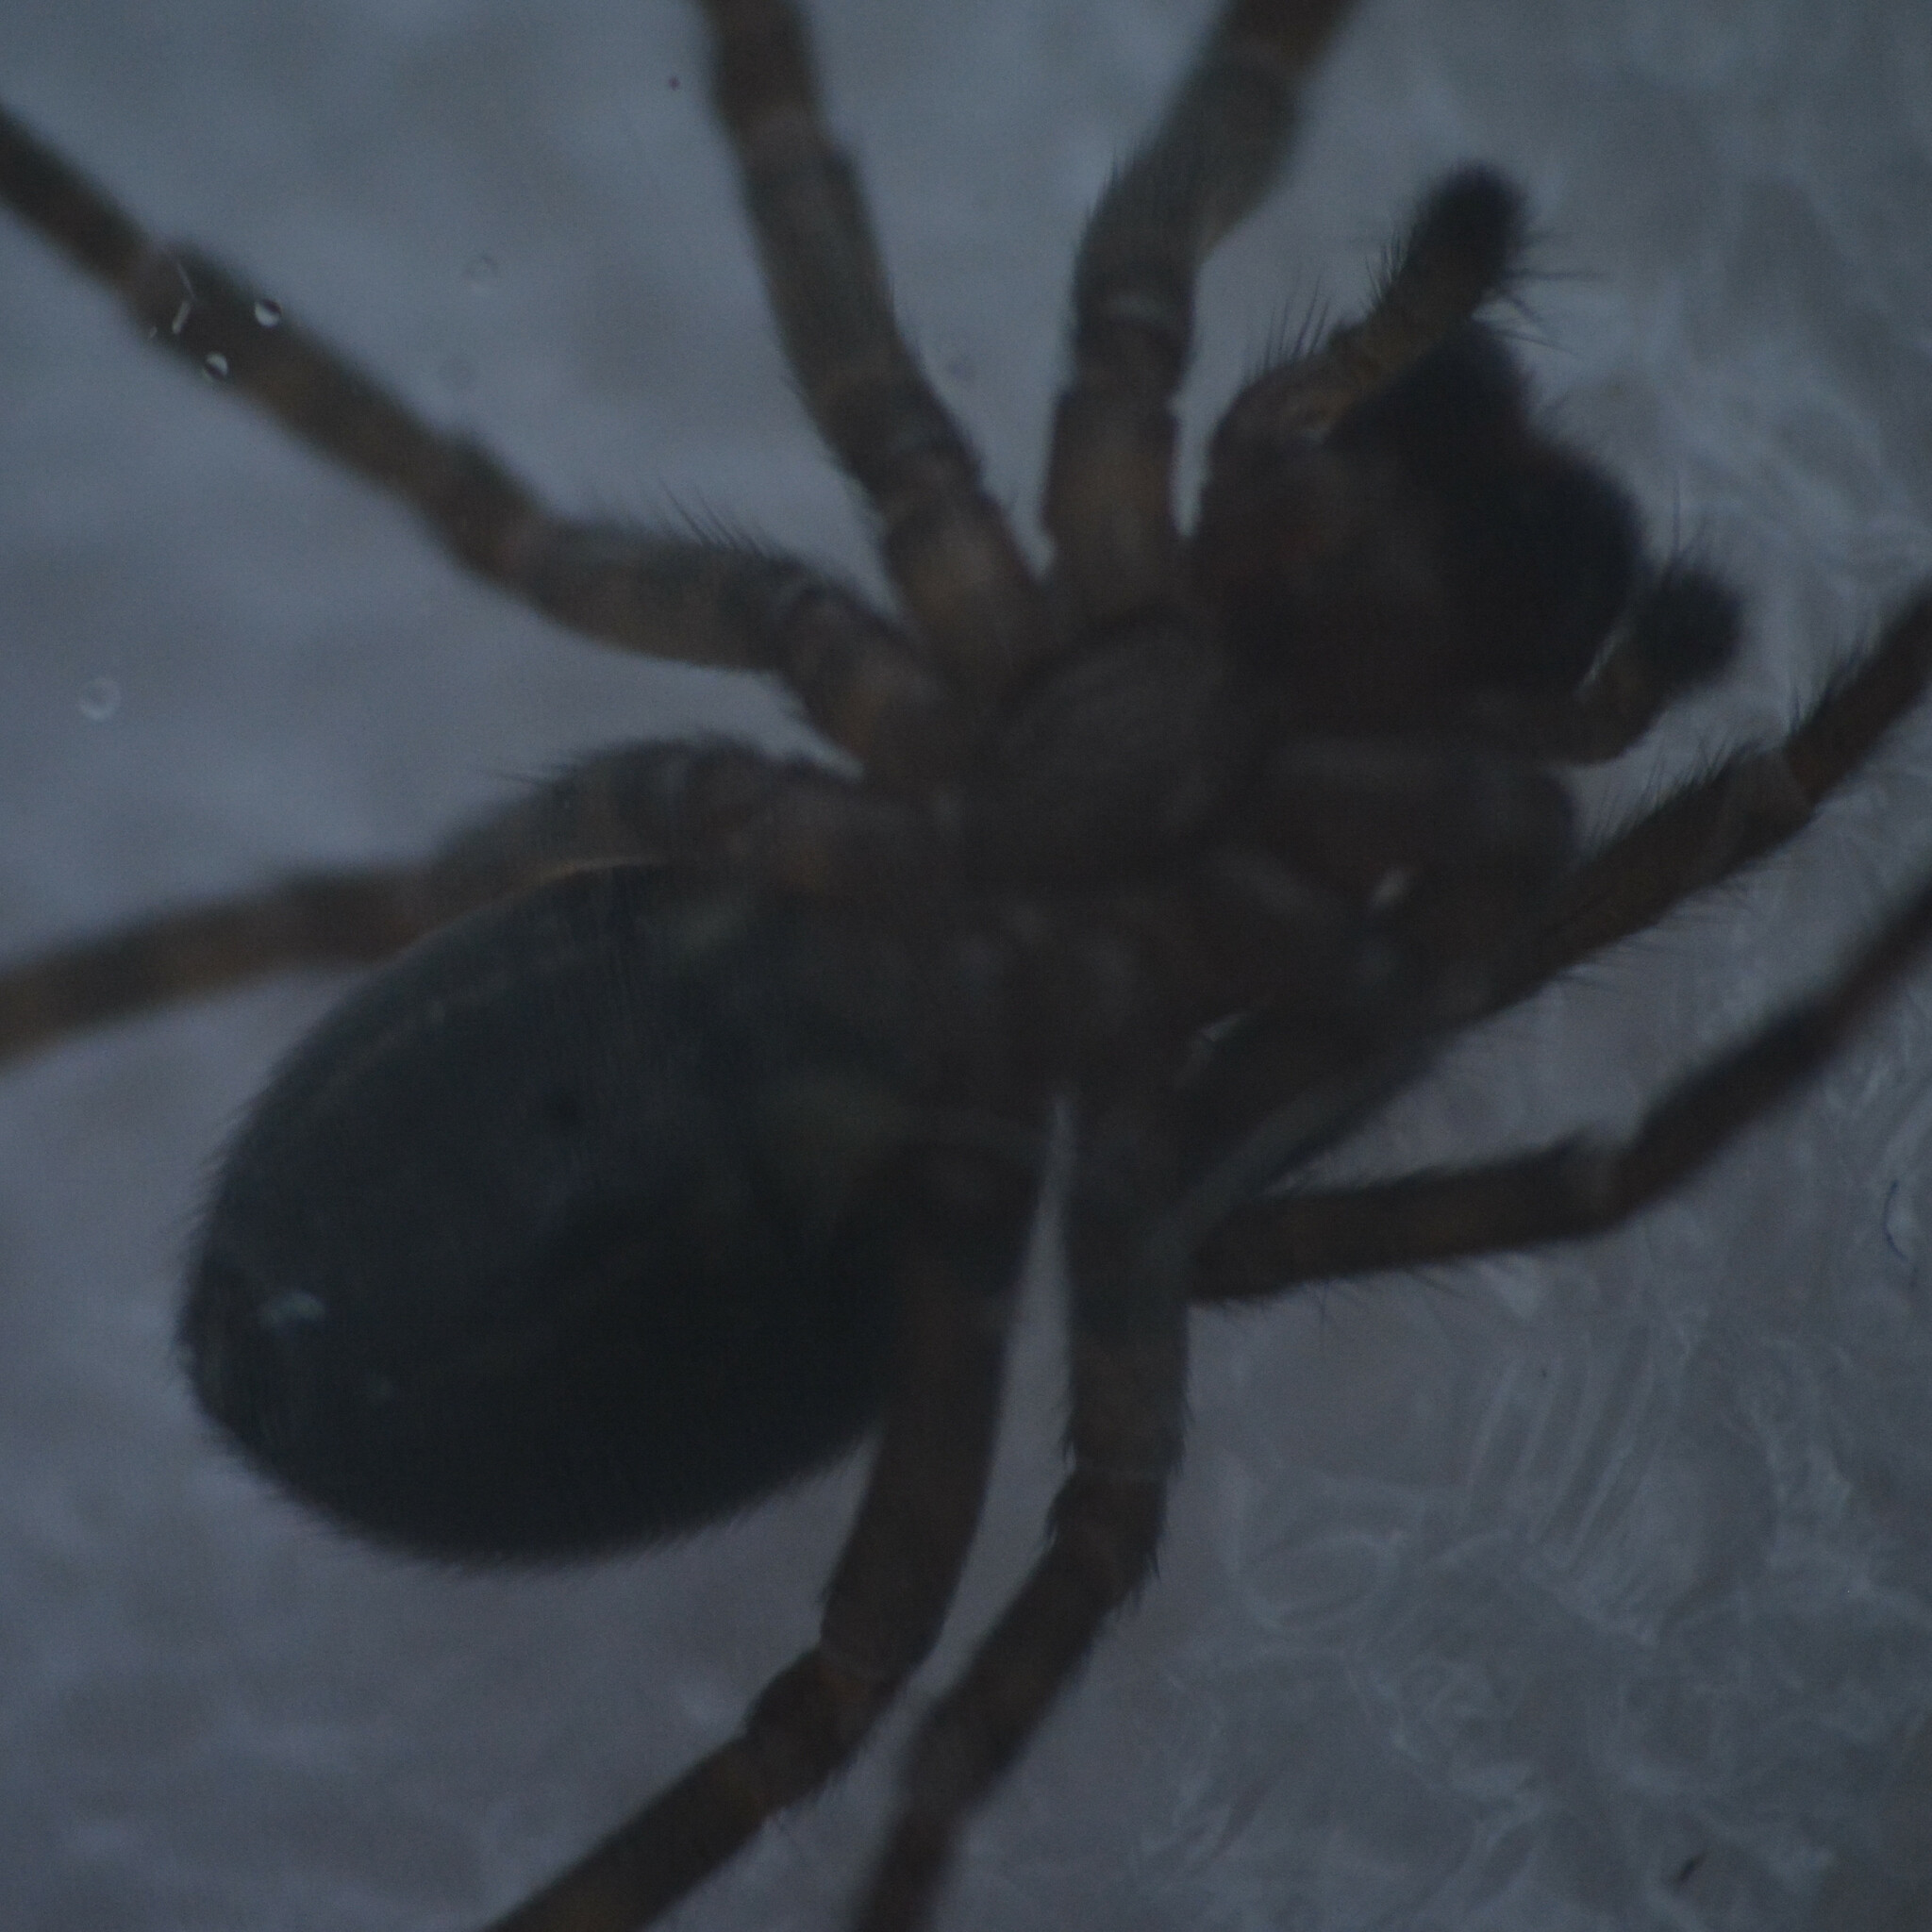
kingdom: Animalia
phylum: Arthropoda
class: Arachnida
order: Araneae
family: Amaurobiidae
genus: Amaurobius
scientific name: Amaurobius ferox
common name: Black laceweaver
